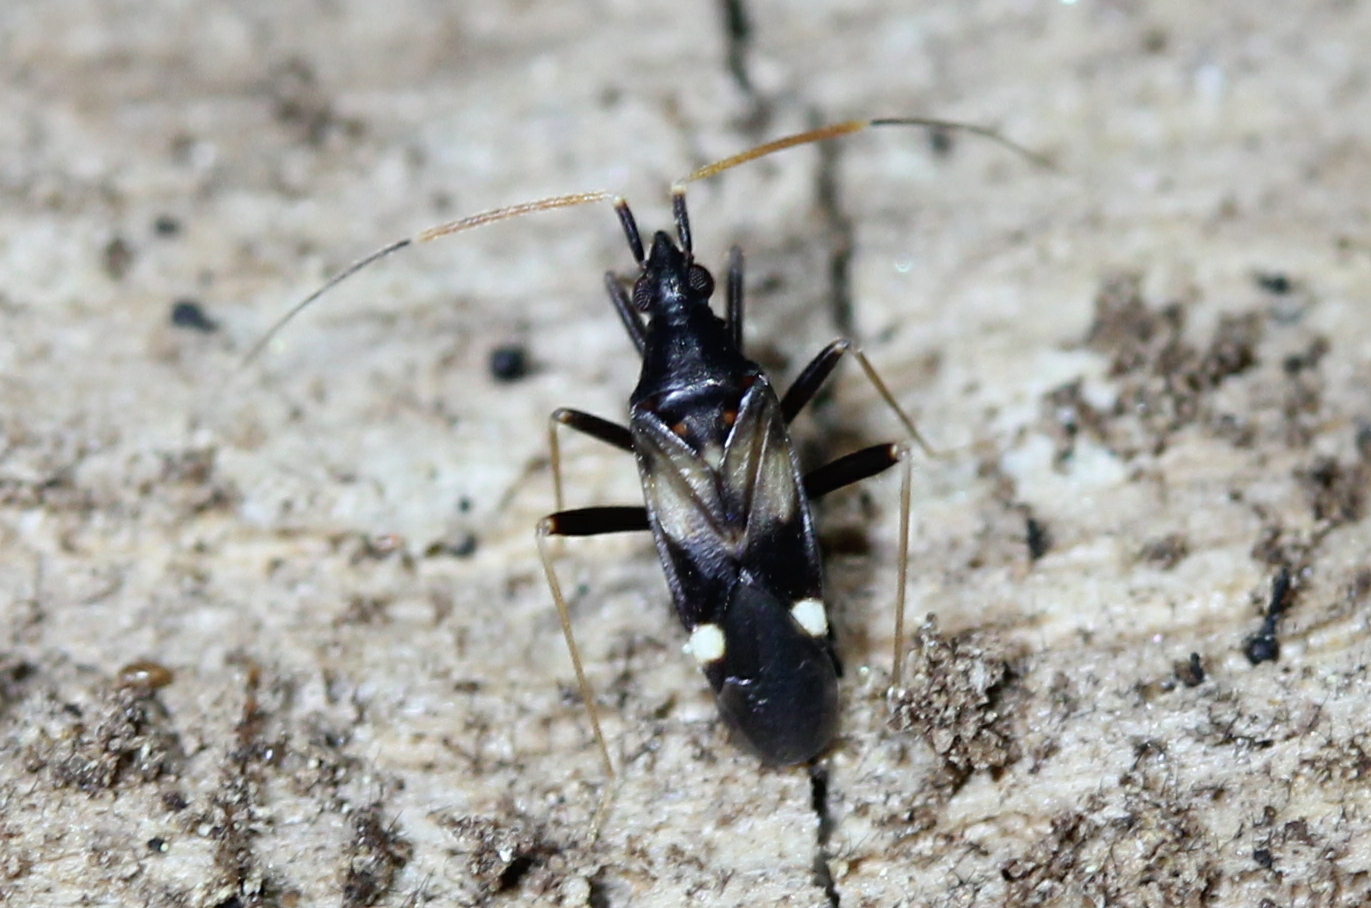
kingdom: Animalia
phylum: Arthropoda
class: Insecta
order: Hemiptera
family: Miridae
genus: Fulvius
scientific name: Fulvius slateri
